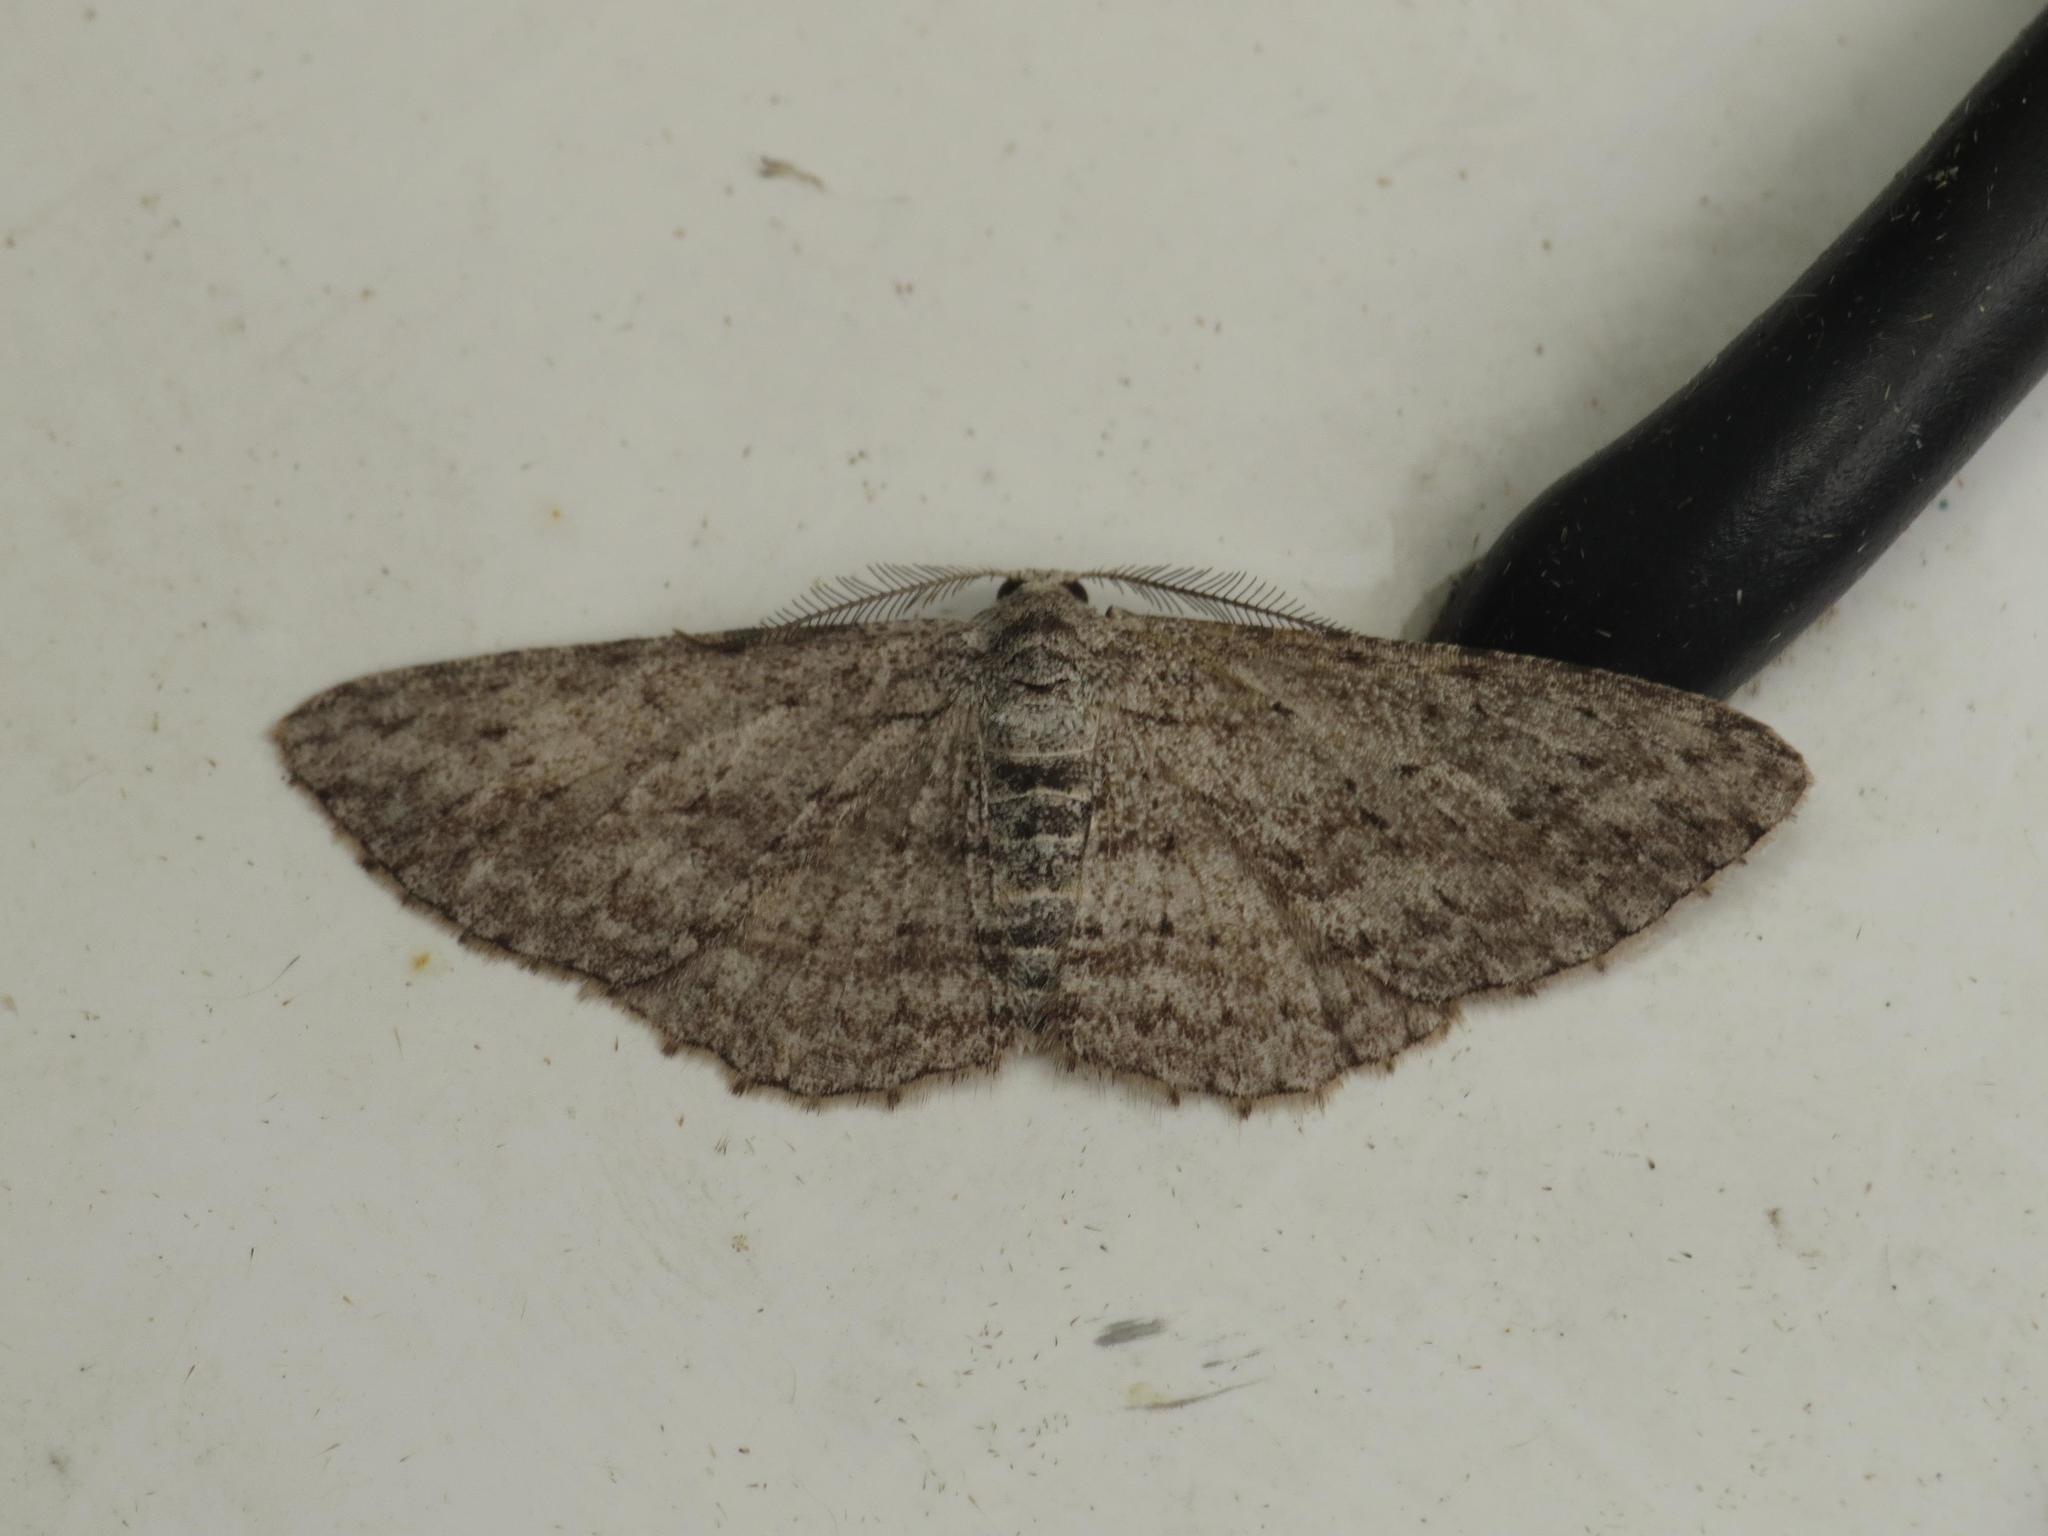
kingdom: Animalia
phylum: Arthropoda
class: Insecta
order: Lepidoptera
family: Geometridae
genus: Phelotis
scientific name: Phelotis cognata
